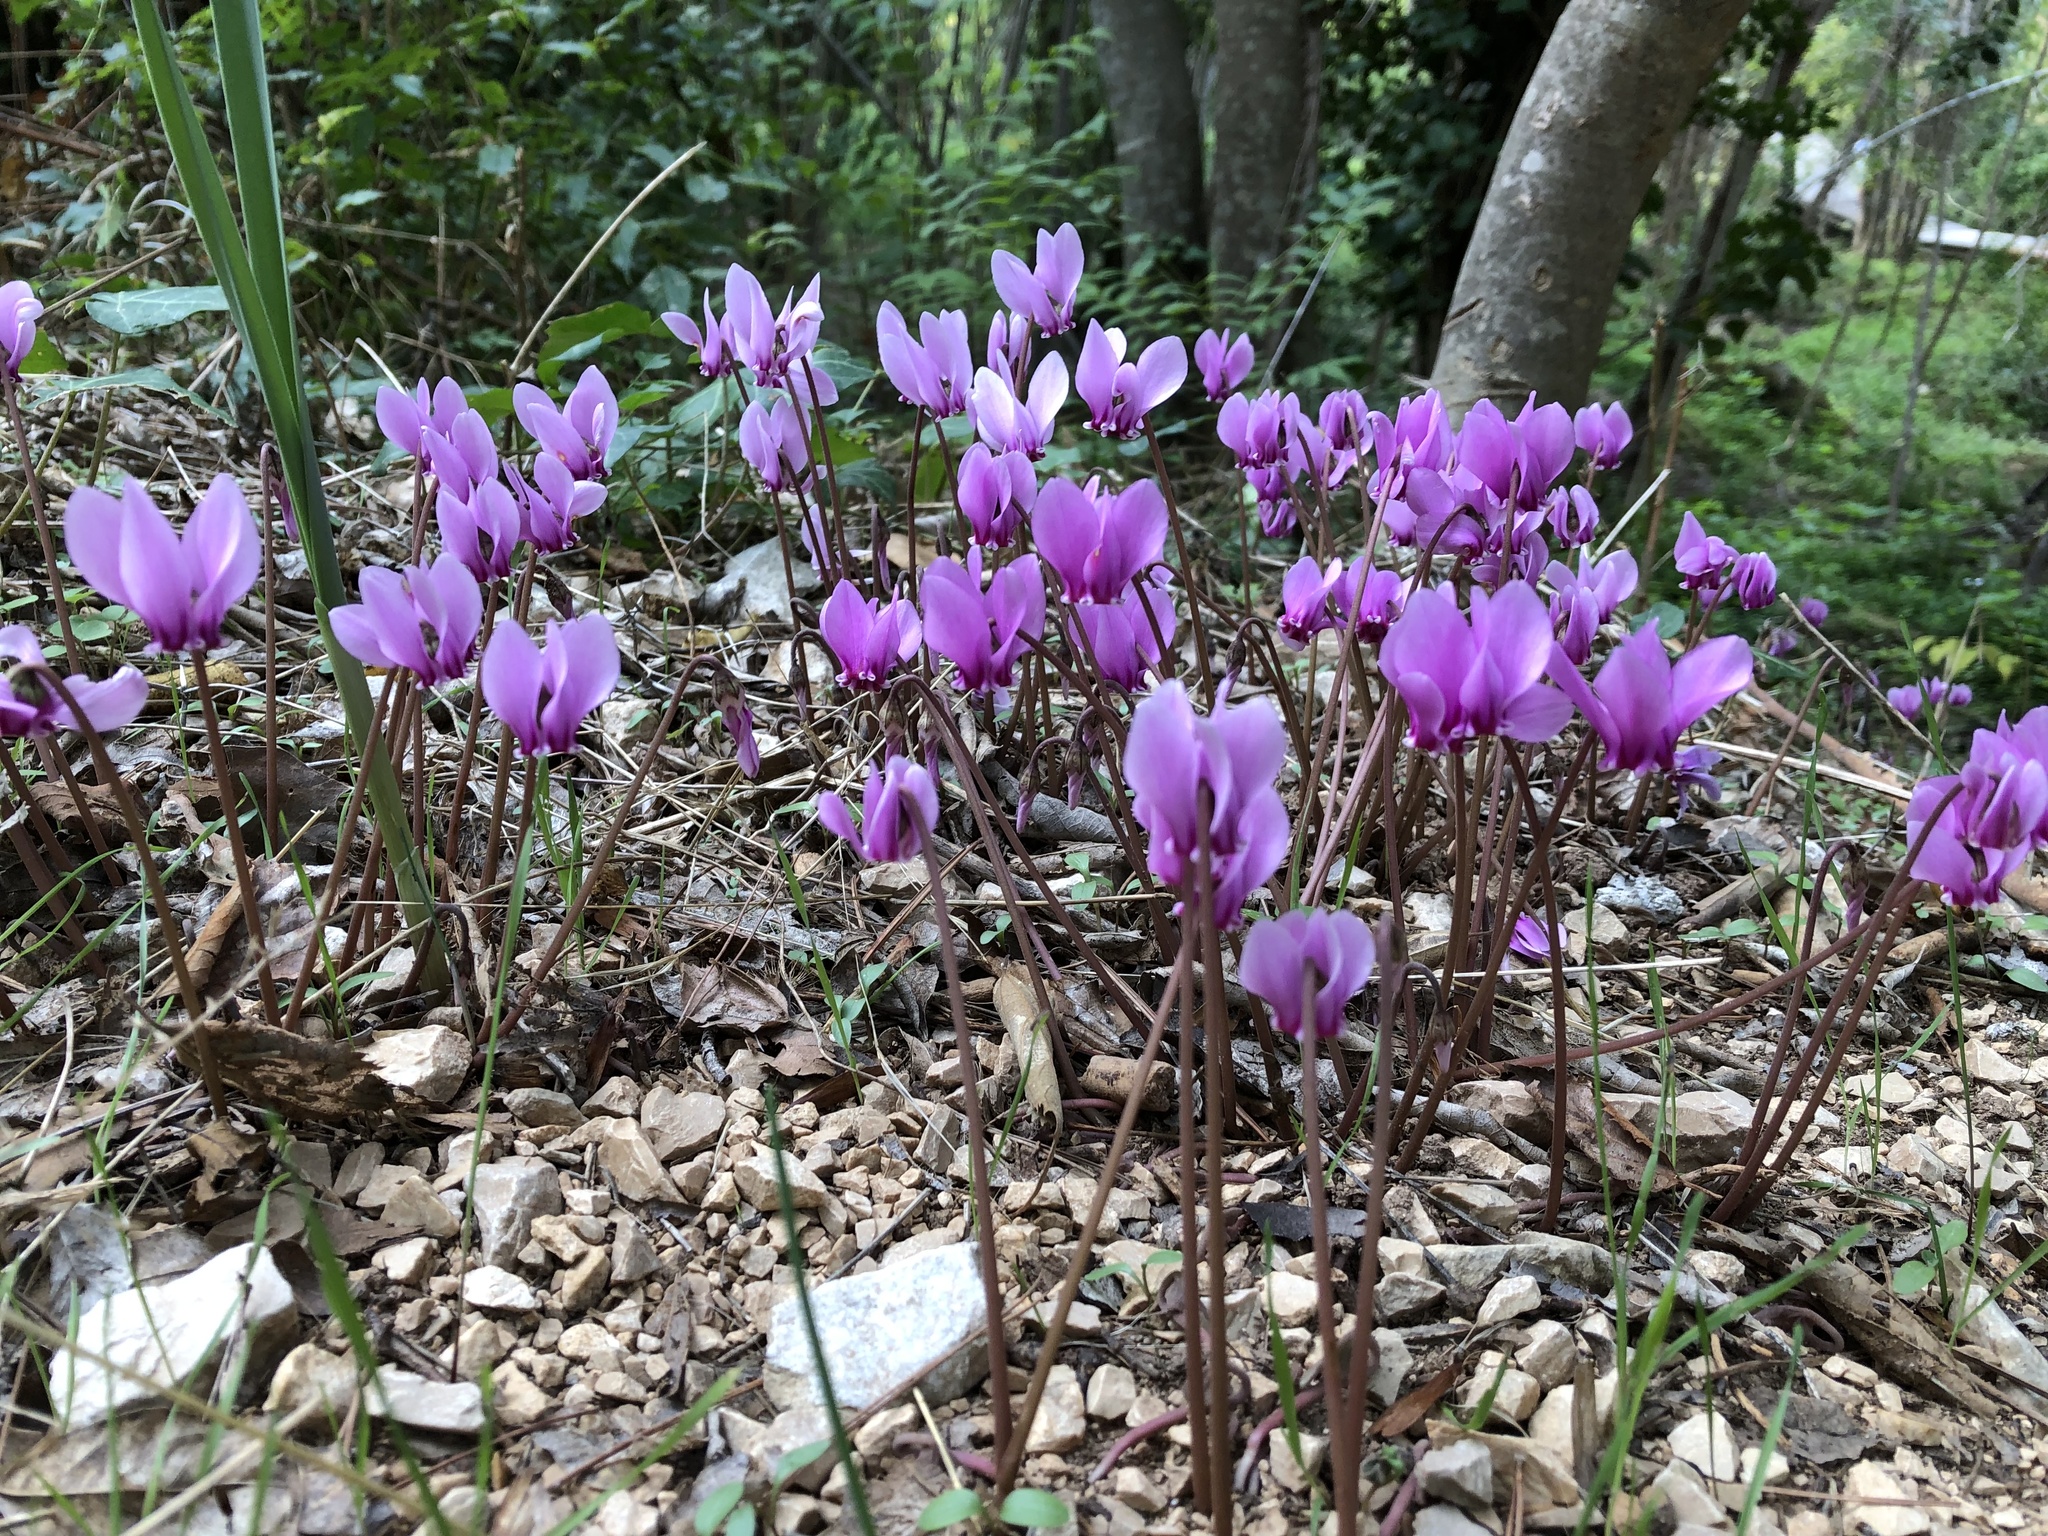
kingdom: Plantae
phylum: Tracheophyta
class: Magnoliopsida
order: Ericales
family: Primulaceae
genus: Cyclamen
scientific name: Cyclamen hederifolium
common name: Sowbread
